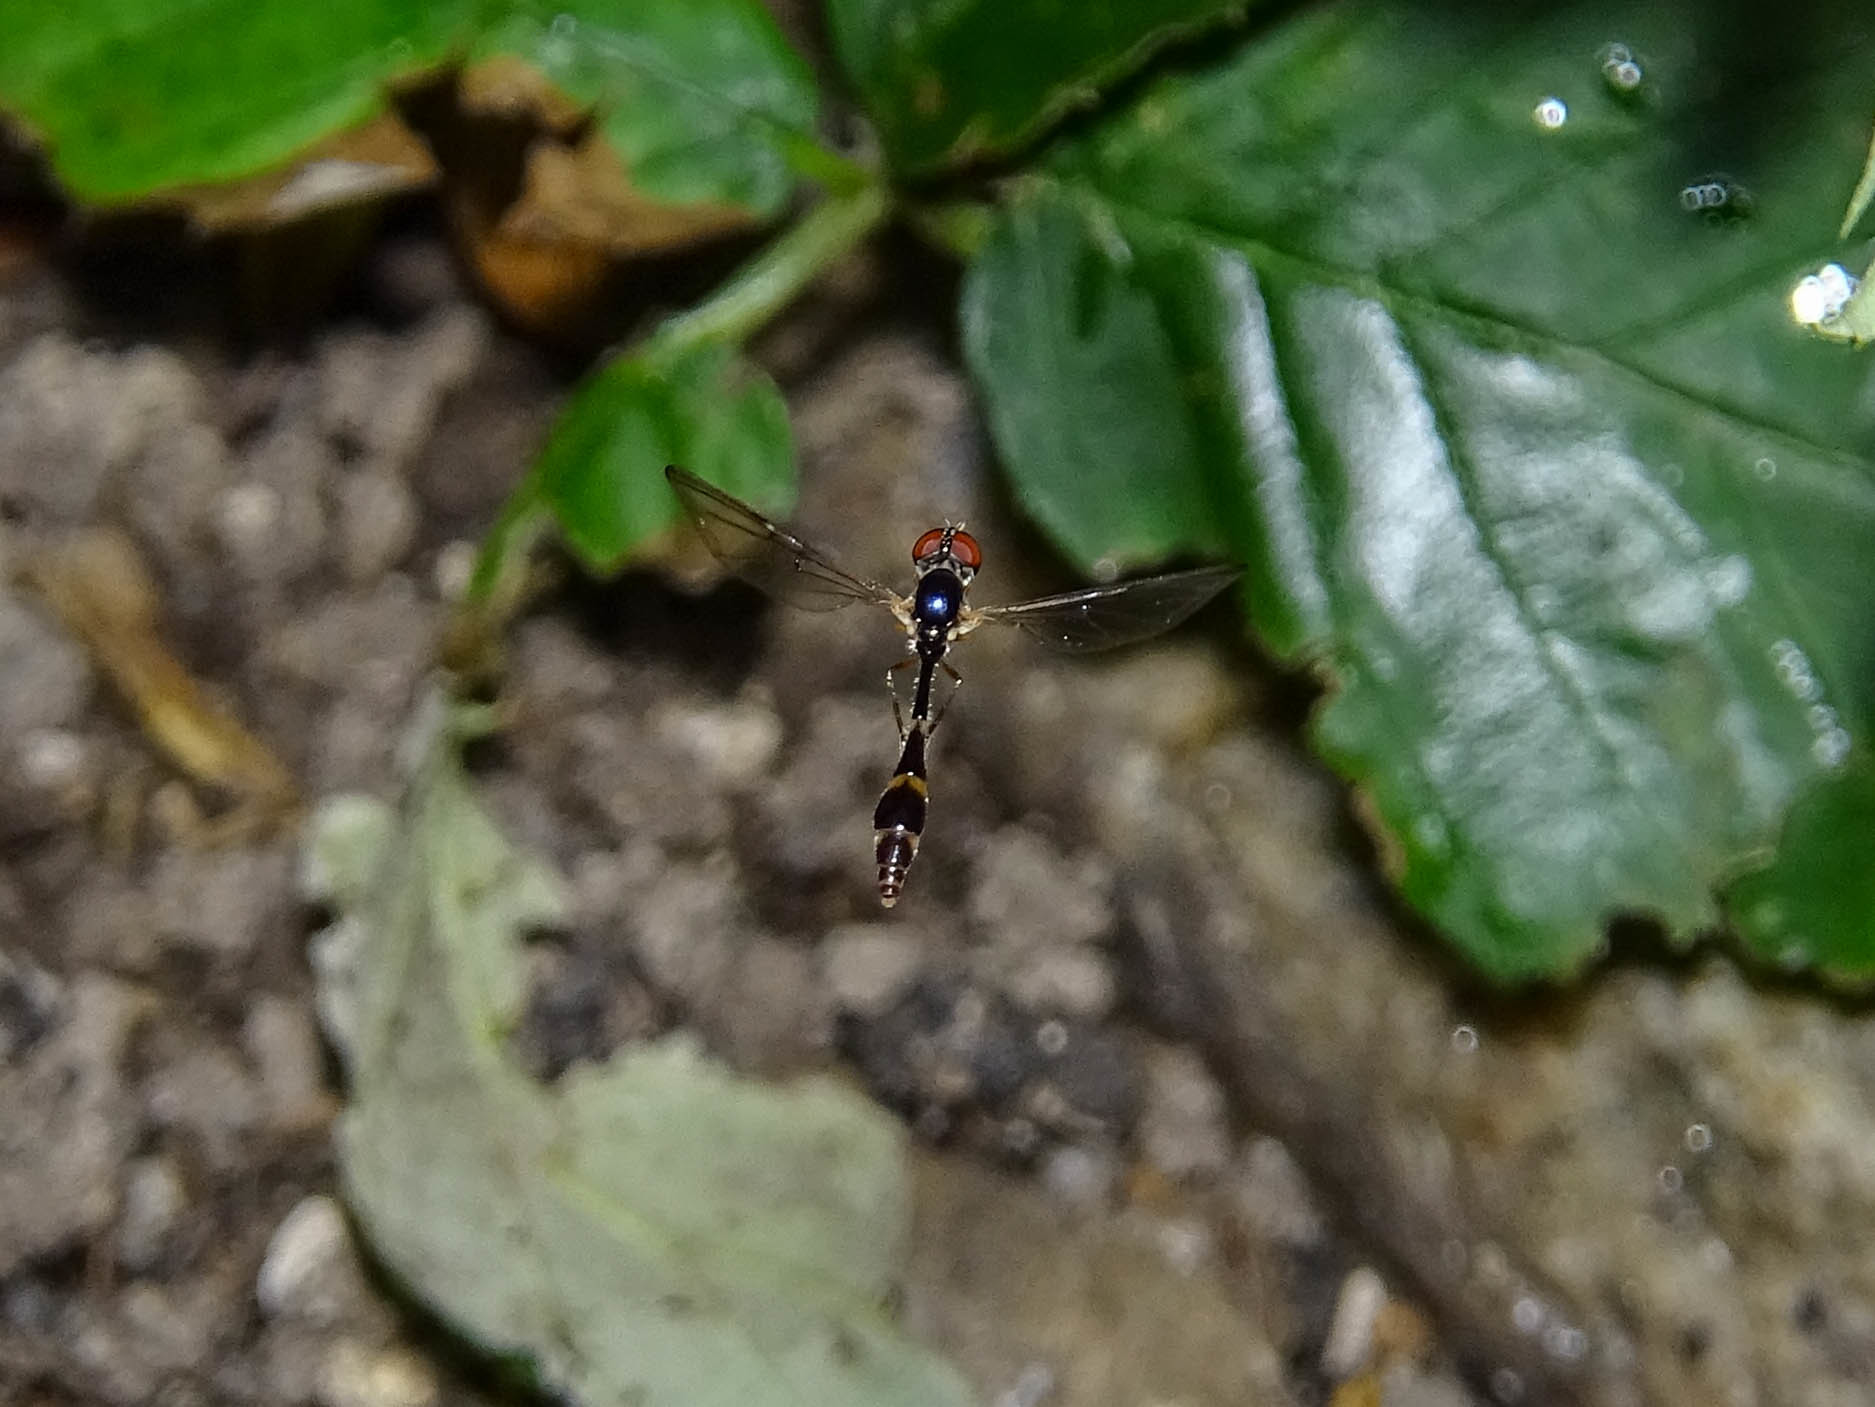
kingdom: Animalia
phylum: Arthropoda
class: Insecta
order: Diptera
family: Syrphidae
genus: Baccha
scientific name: Baccha elongata
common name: Common dainty
